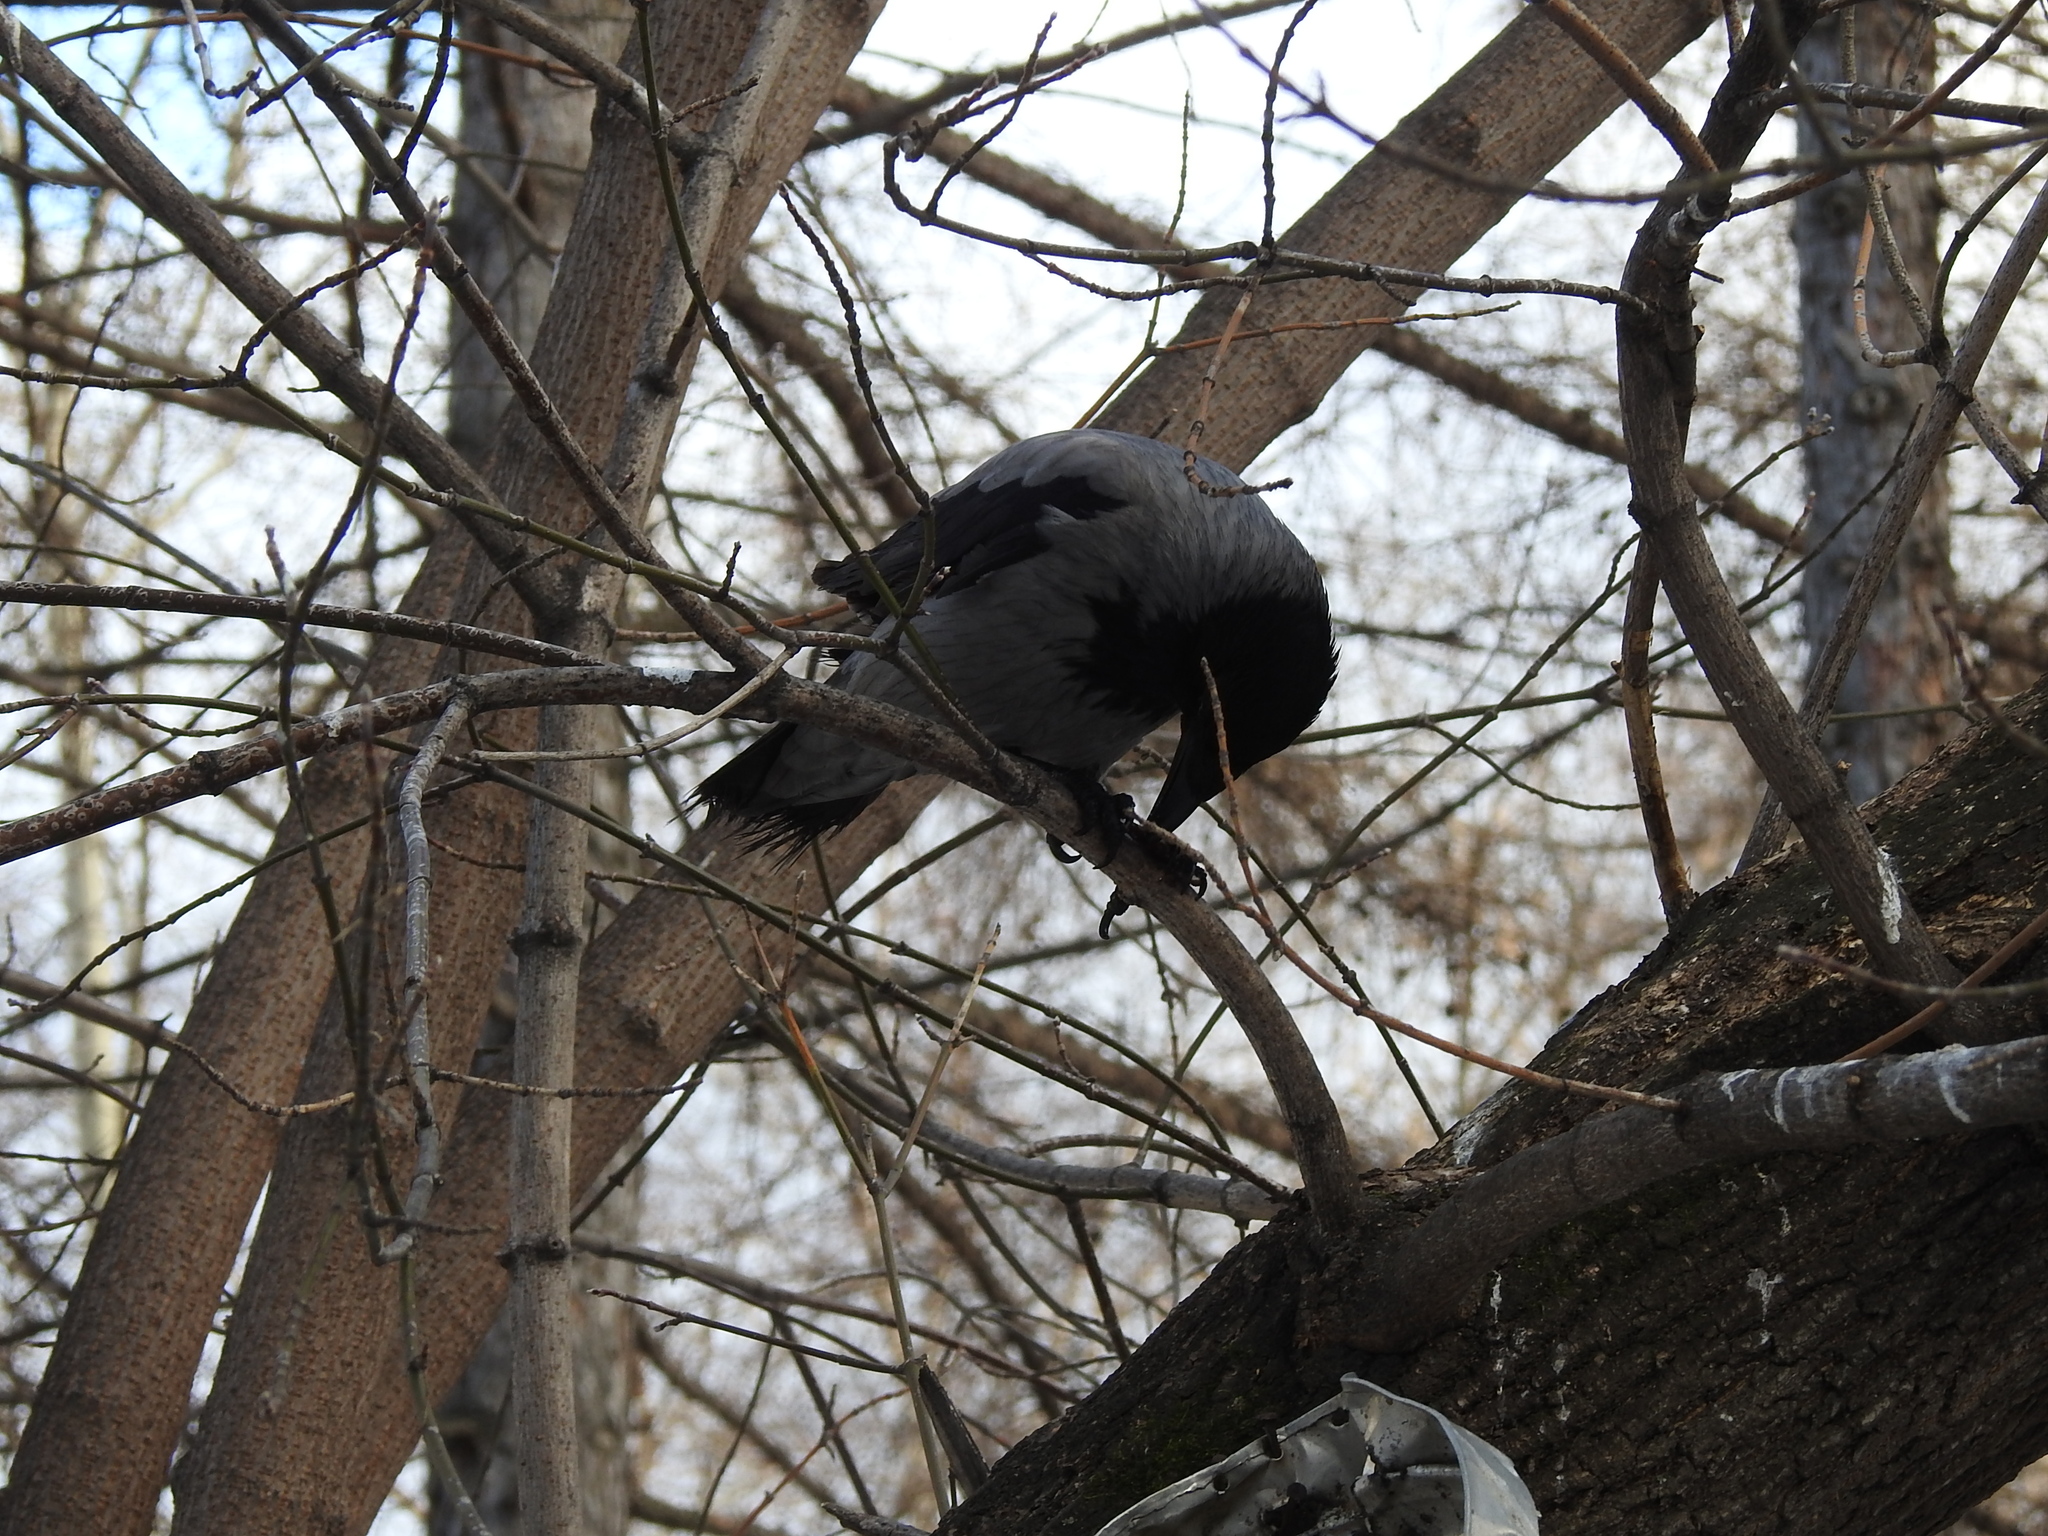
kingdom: Animalia
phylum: Chordata
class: Aves
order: Passeriformes
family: Corvidae
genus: Corvus
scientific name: Corvus cornix
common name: Hooded crow
